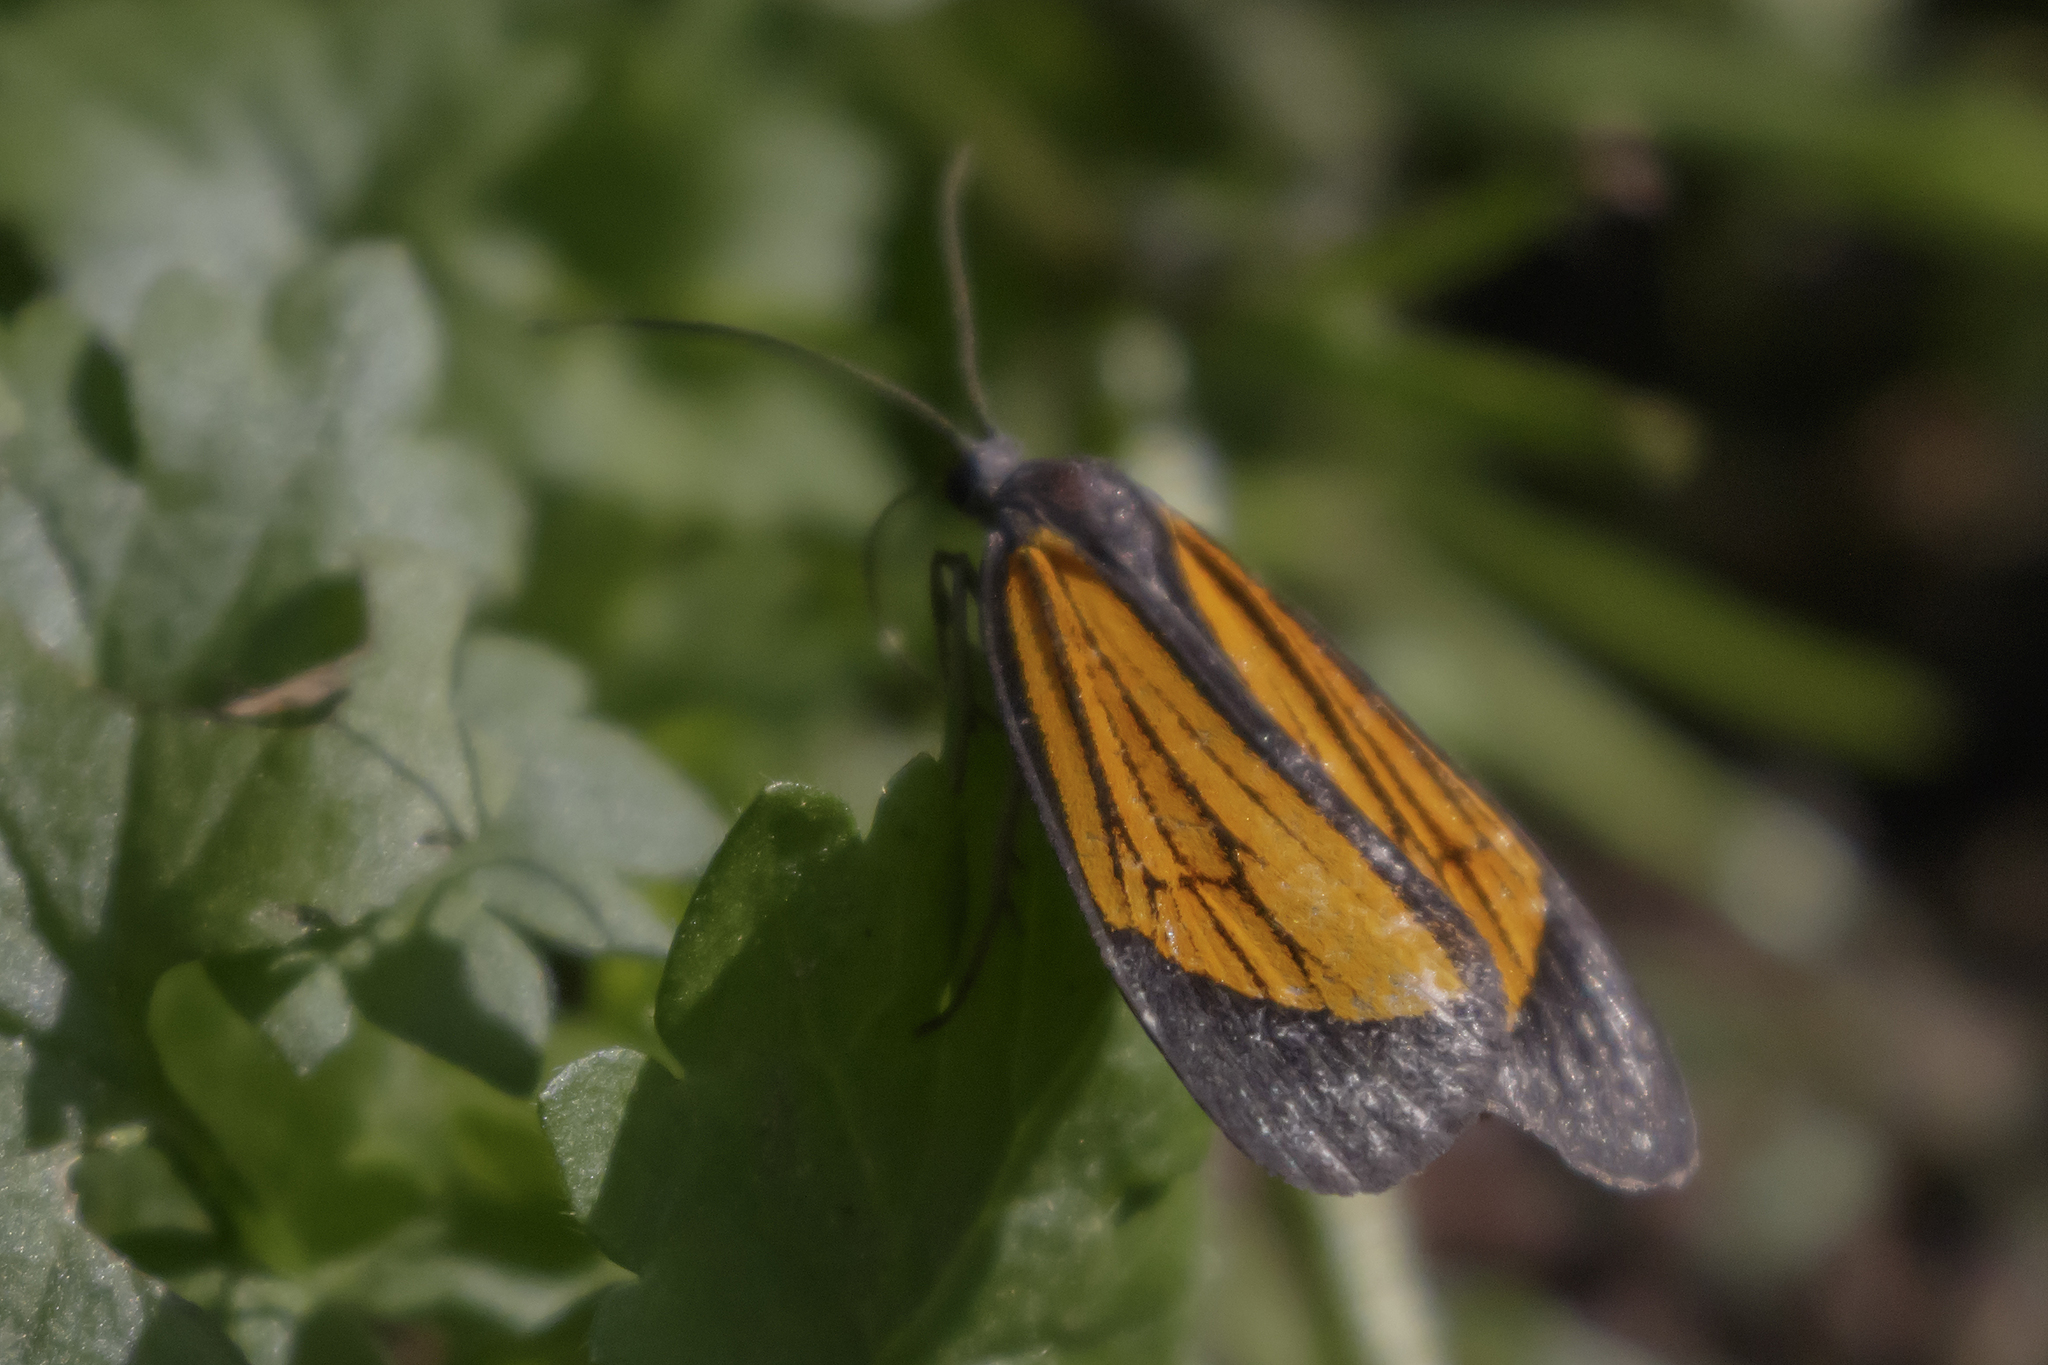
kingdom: Animalia
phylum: Arthropoda
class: Insecta
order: Lepidoptera
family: Notodontidae
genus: Scea
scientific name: Scea auriflamma
